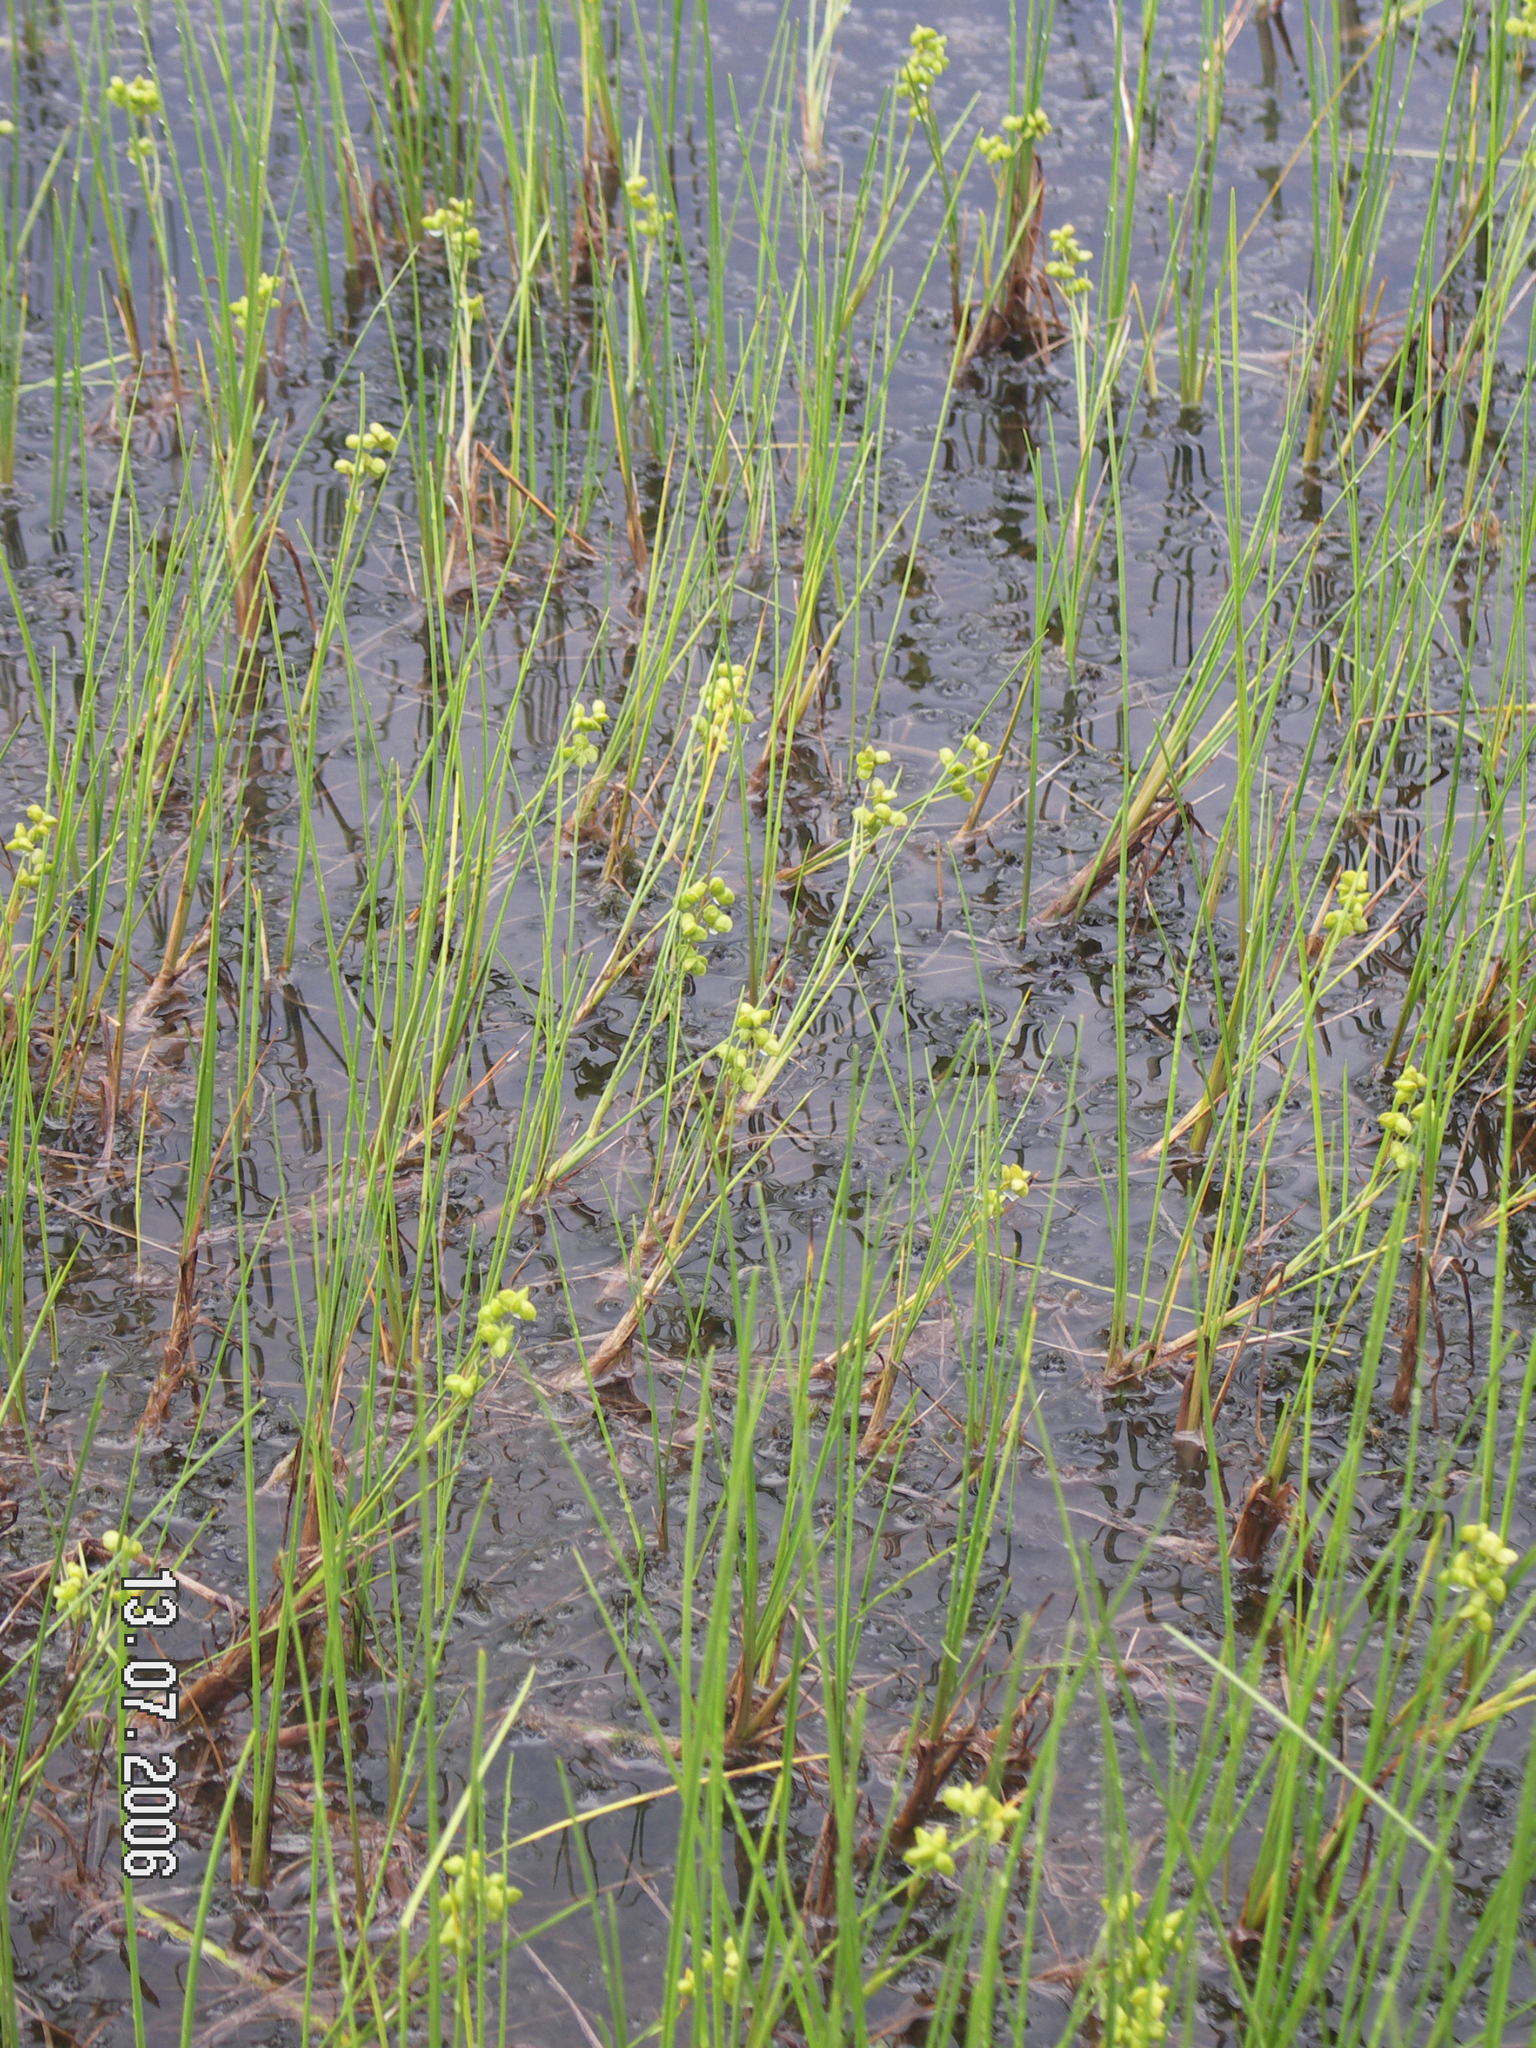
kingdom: Plantae
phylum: Tracheophyta
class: Liliopsida
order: Alismatales
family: Scheuchzeriaceae
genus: Scheuchzeria
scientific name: Scheuchzeria palustris
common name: Rannoch-rush
